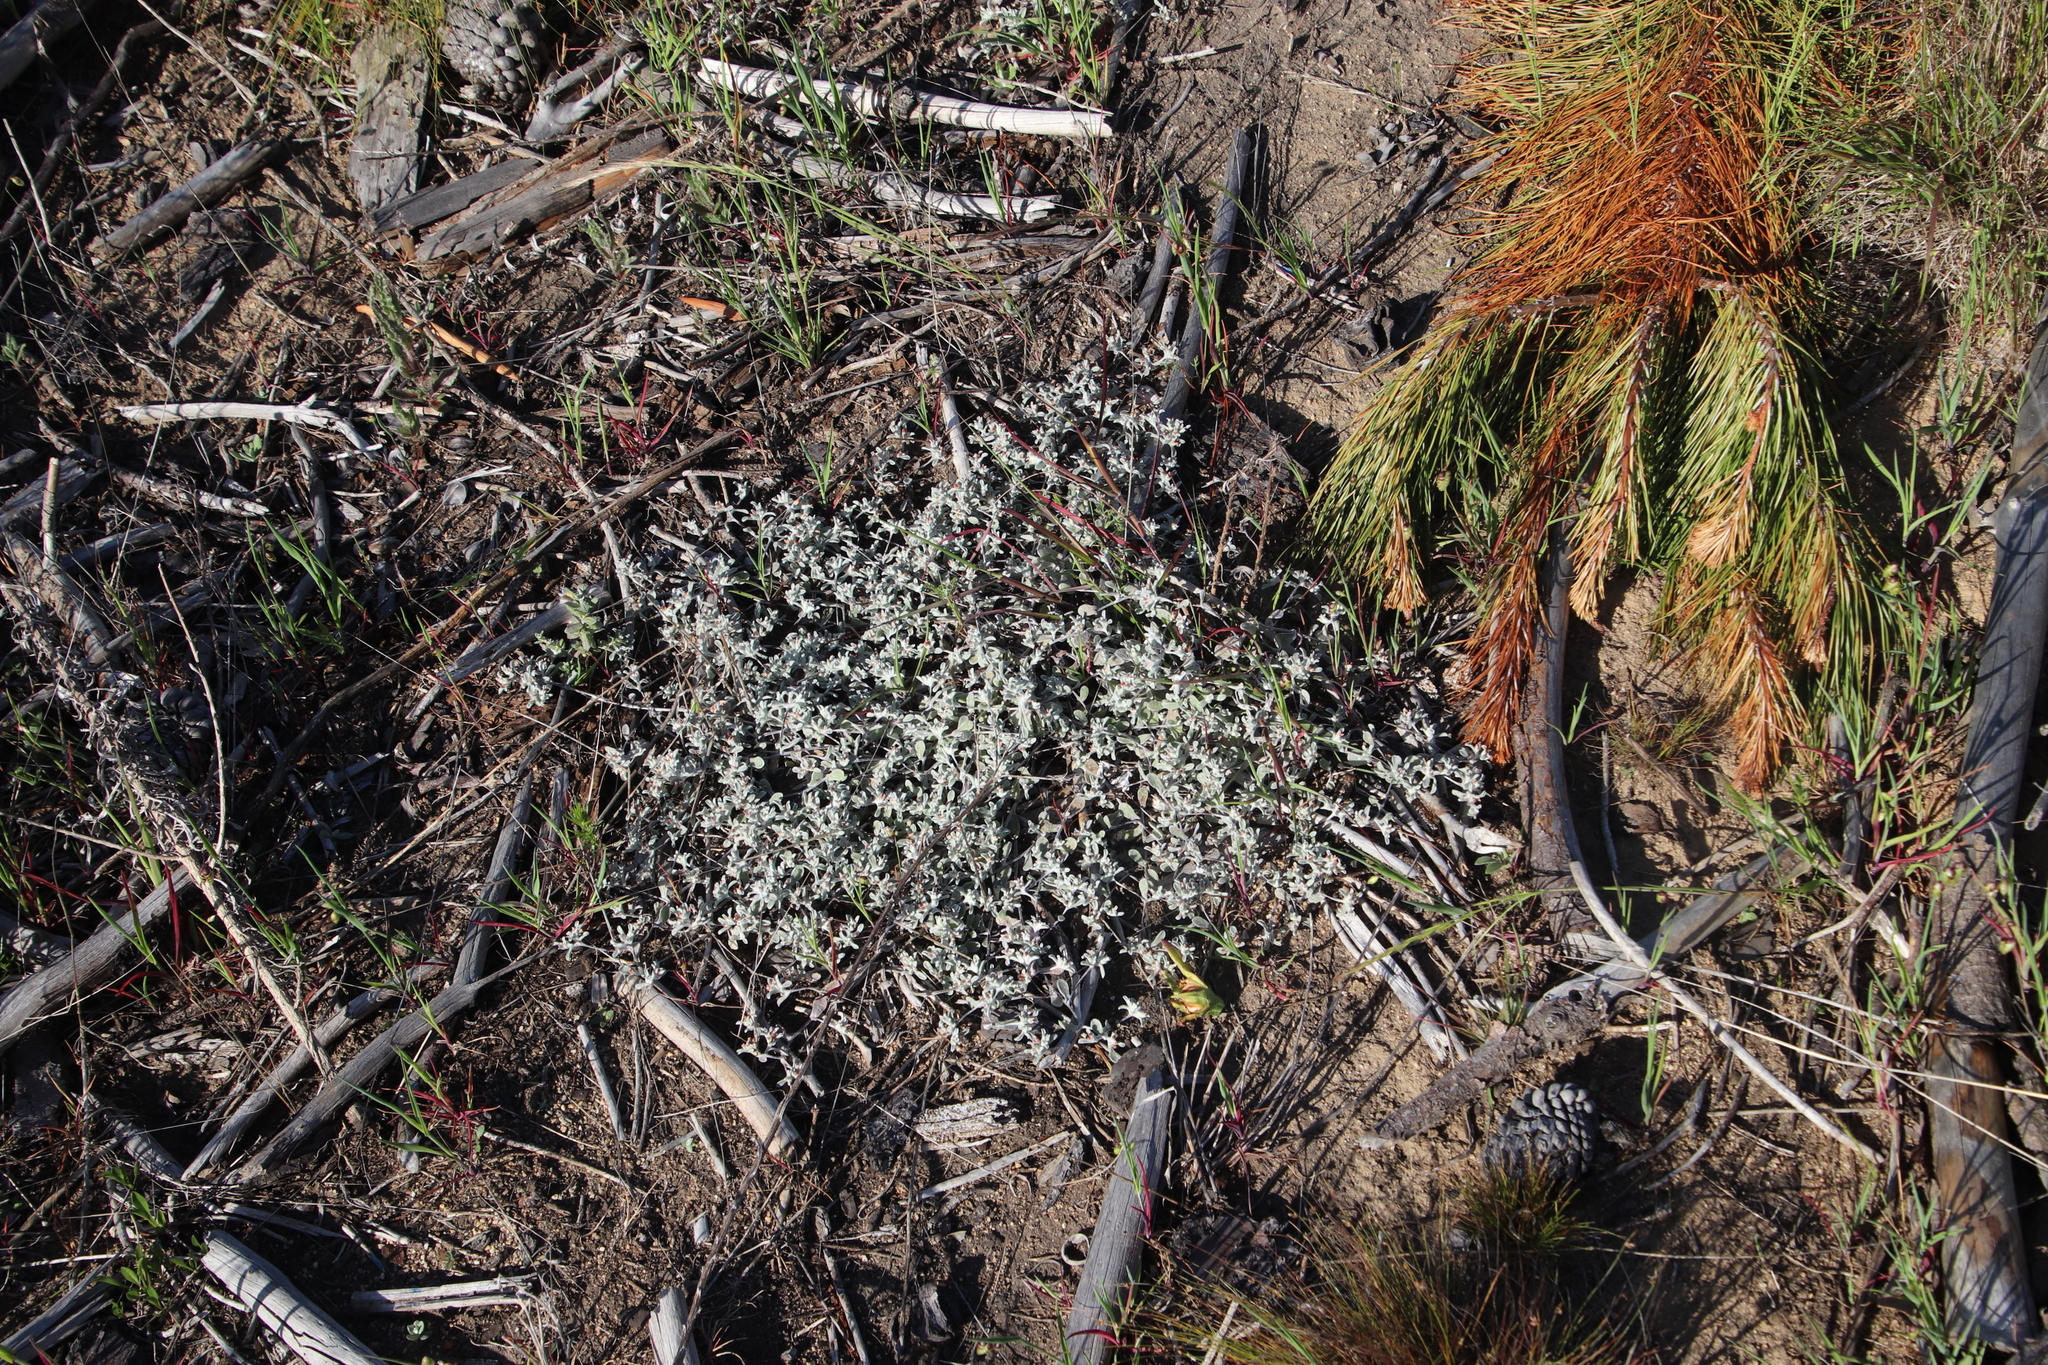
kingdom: Plantae
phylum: Tracheophyta
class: Magnoliopsida
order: Asterales
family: Asteraceae
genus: Helichrysum
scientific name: Helichrysum tinctum
